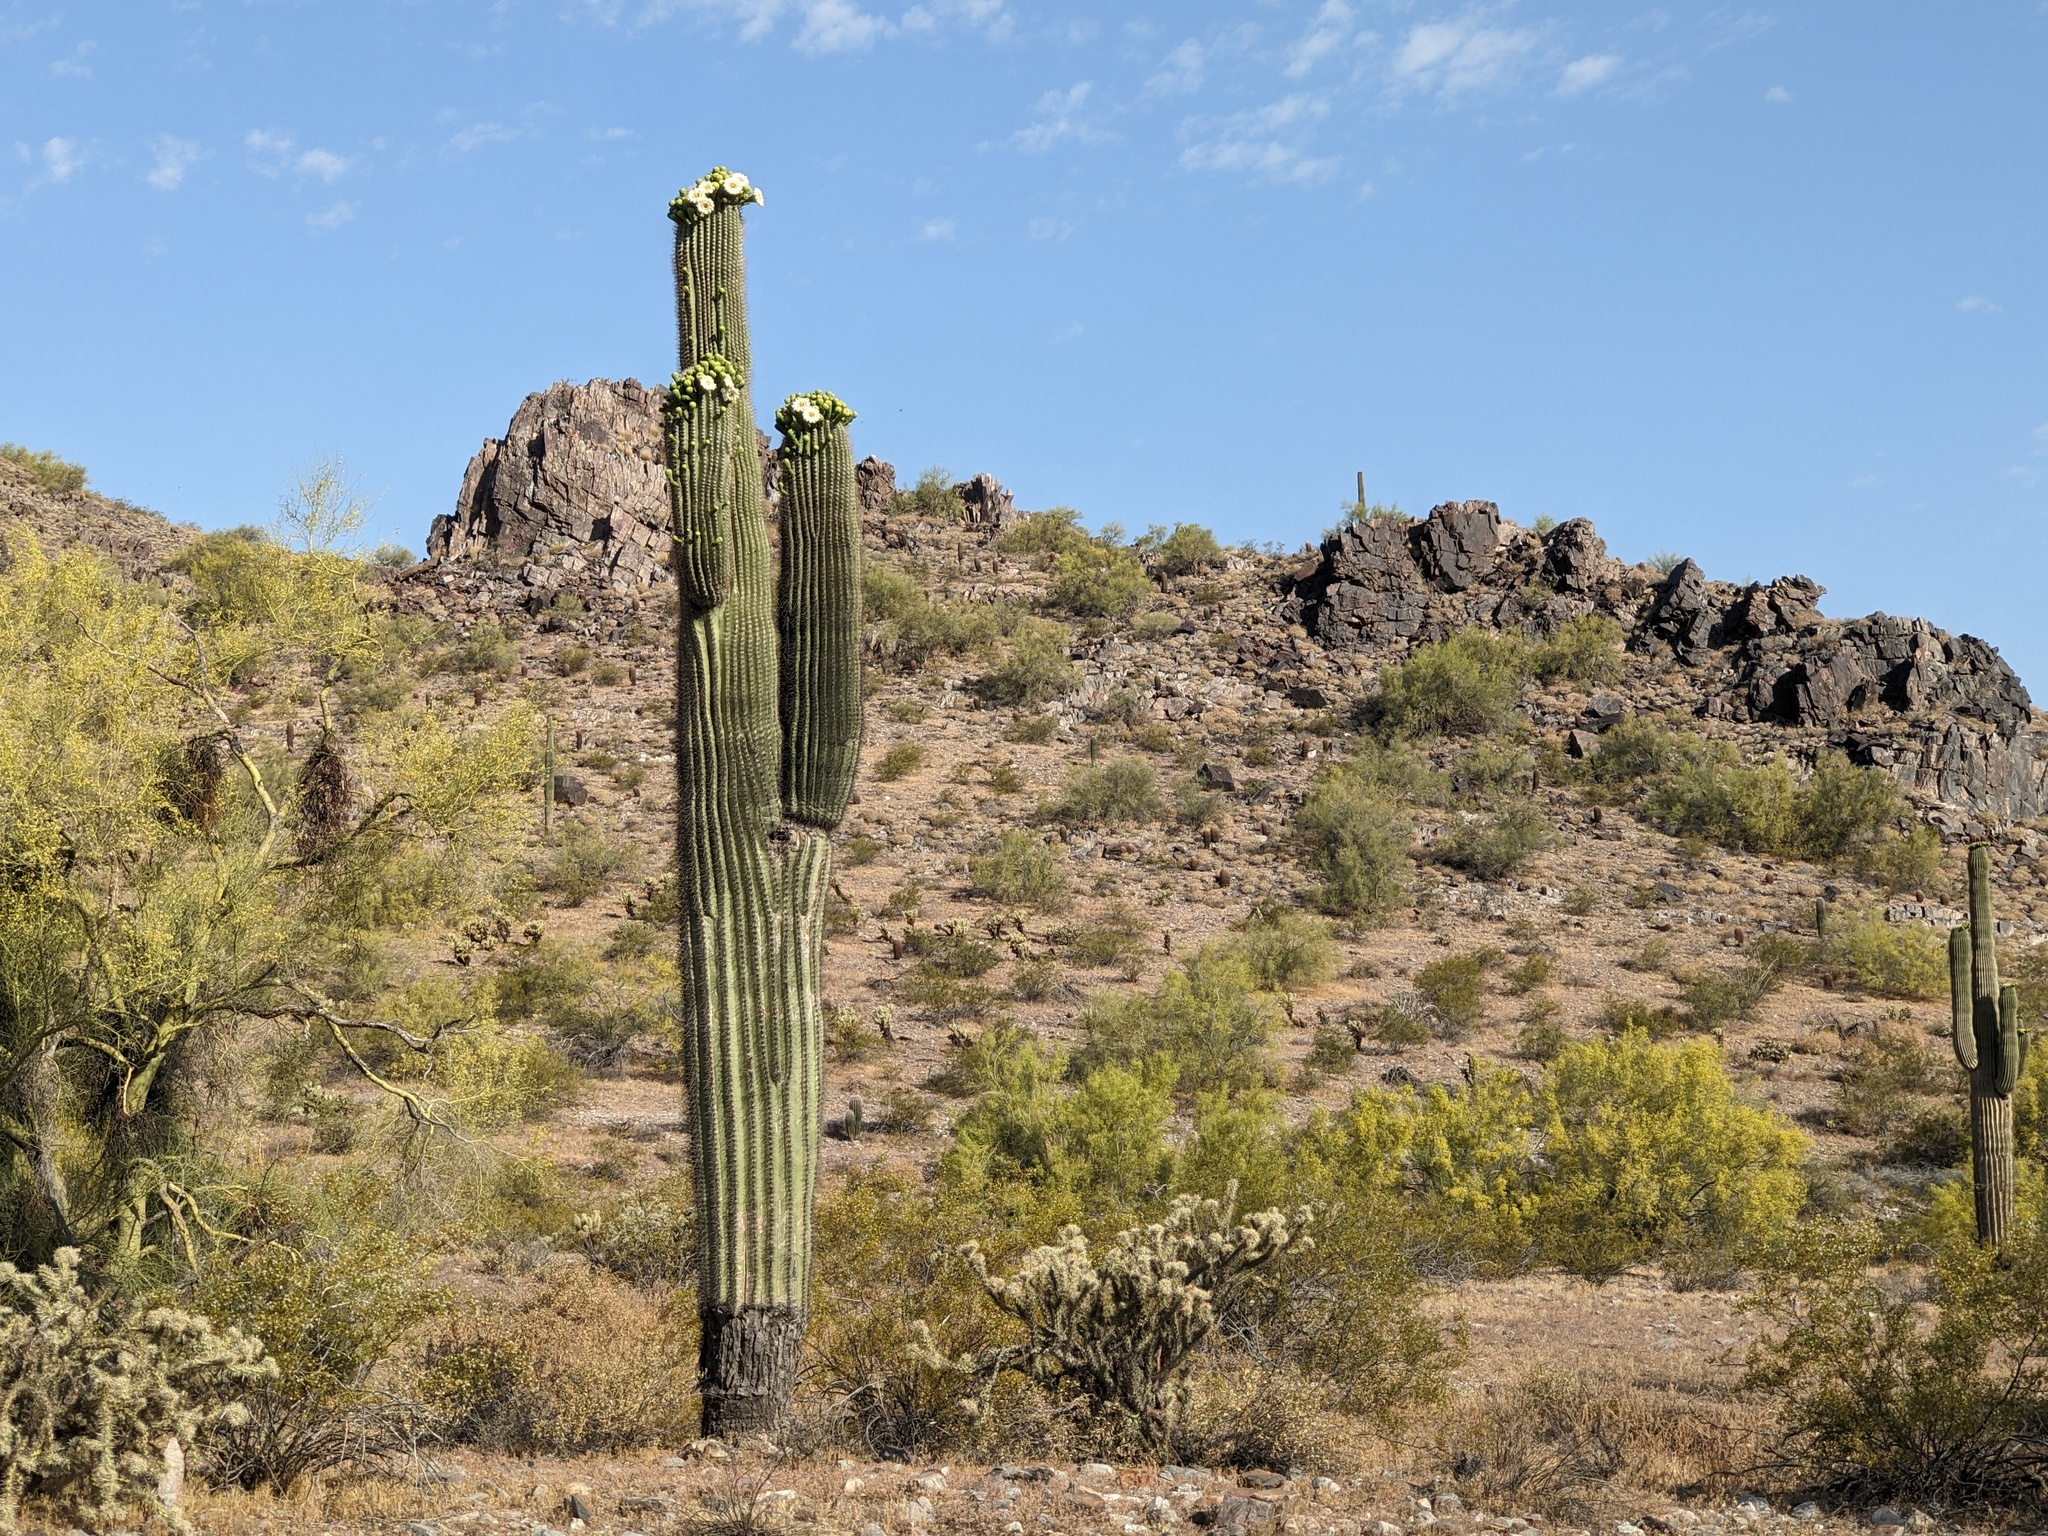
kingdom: Plantae
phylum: Tracheophyta
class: Magnoliopsida
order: Caryophyllales
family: Cactaceae
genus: Carnegiea
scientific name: Carnegiea gigantea
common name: Saguaro
